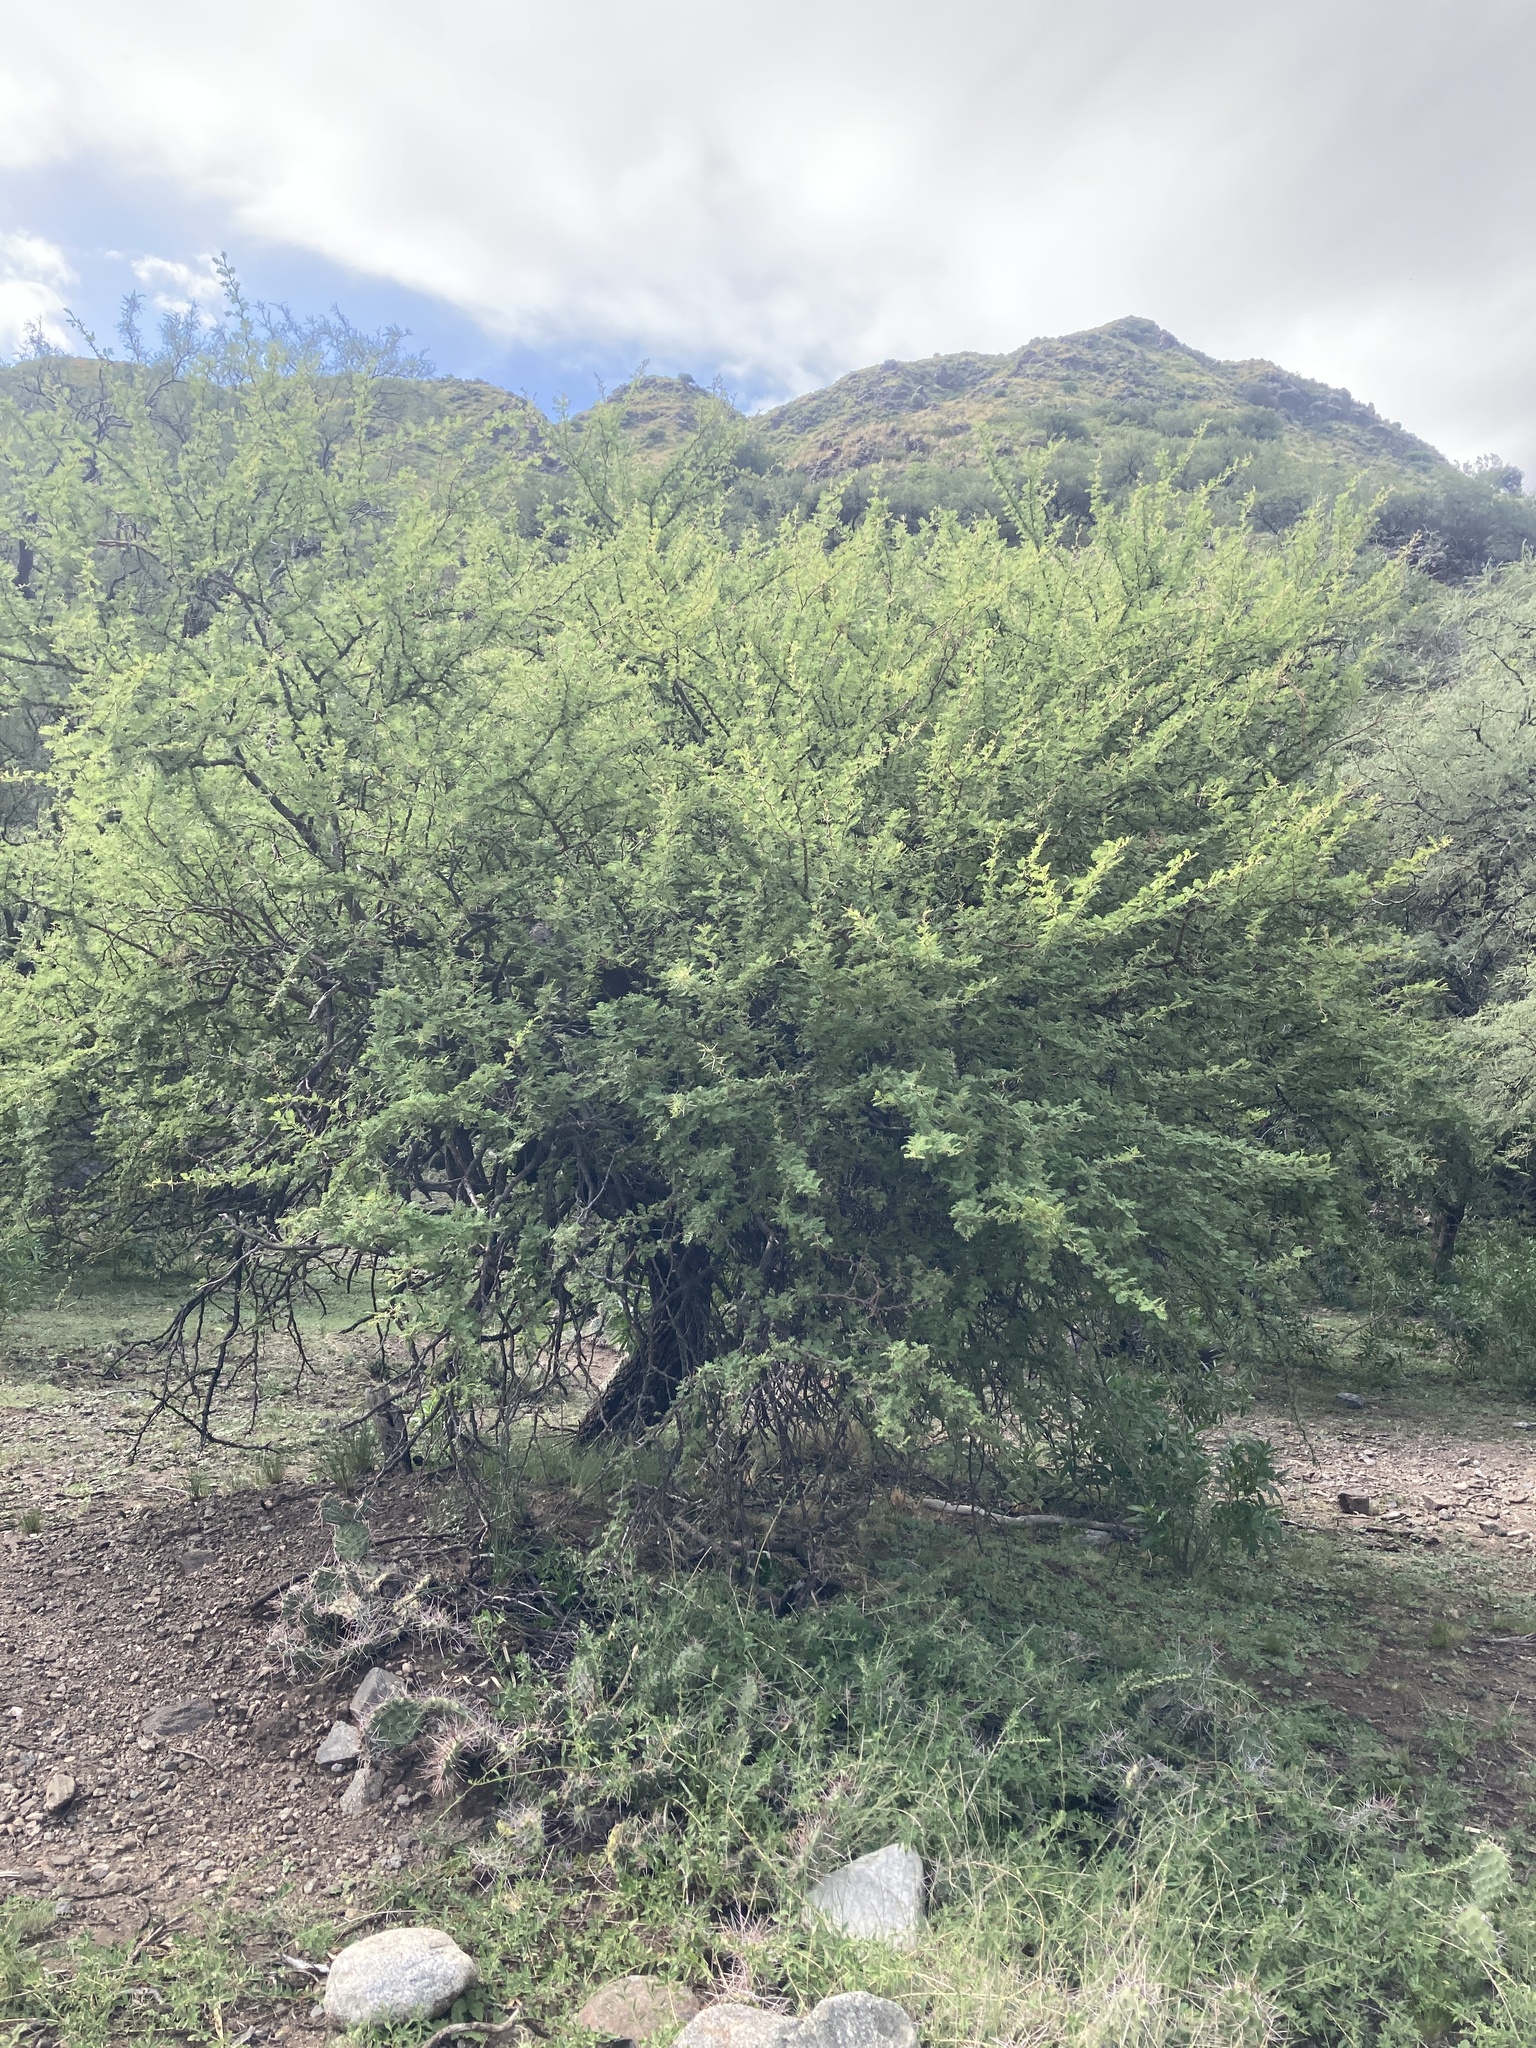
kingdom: Plantae
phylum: Tracheophyta
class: Magnoliopsida
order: Fabales
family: Fabaceae
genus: Vachellia
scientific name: Vachellia caven
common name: Roman cassie
